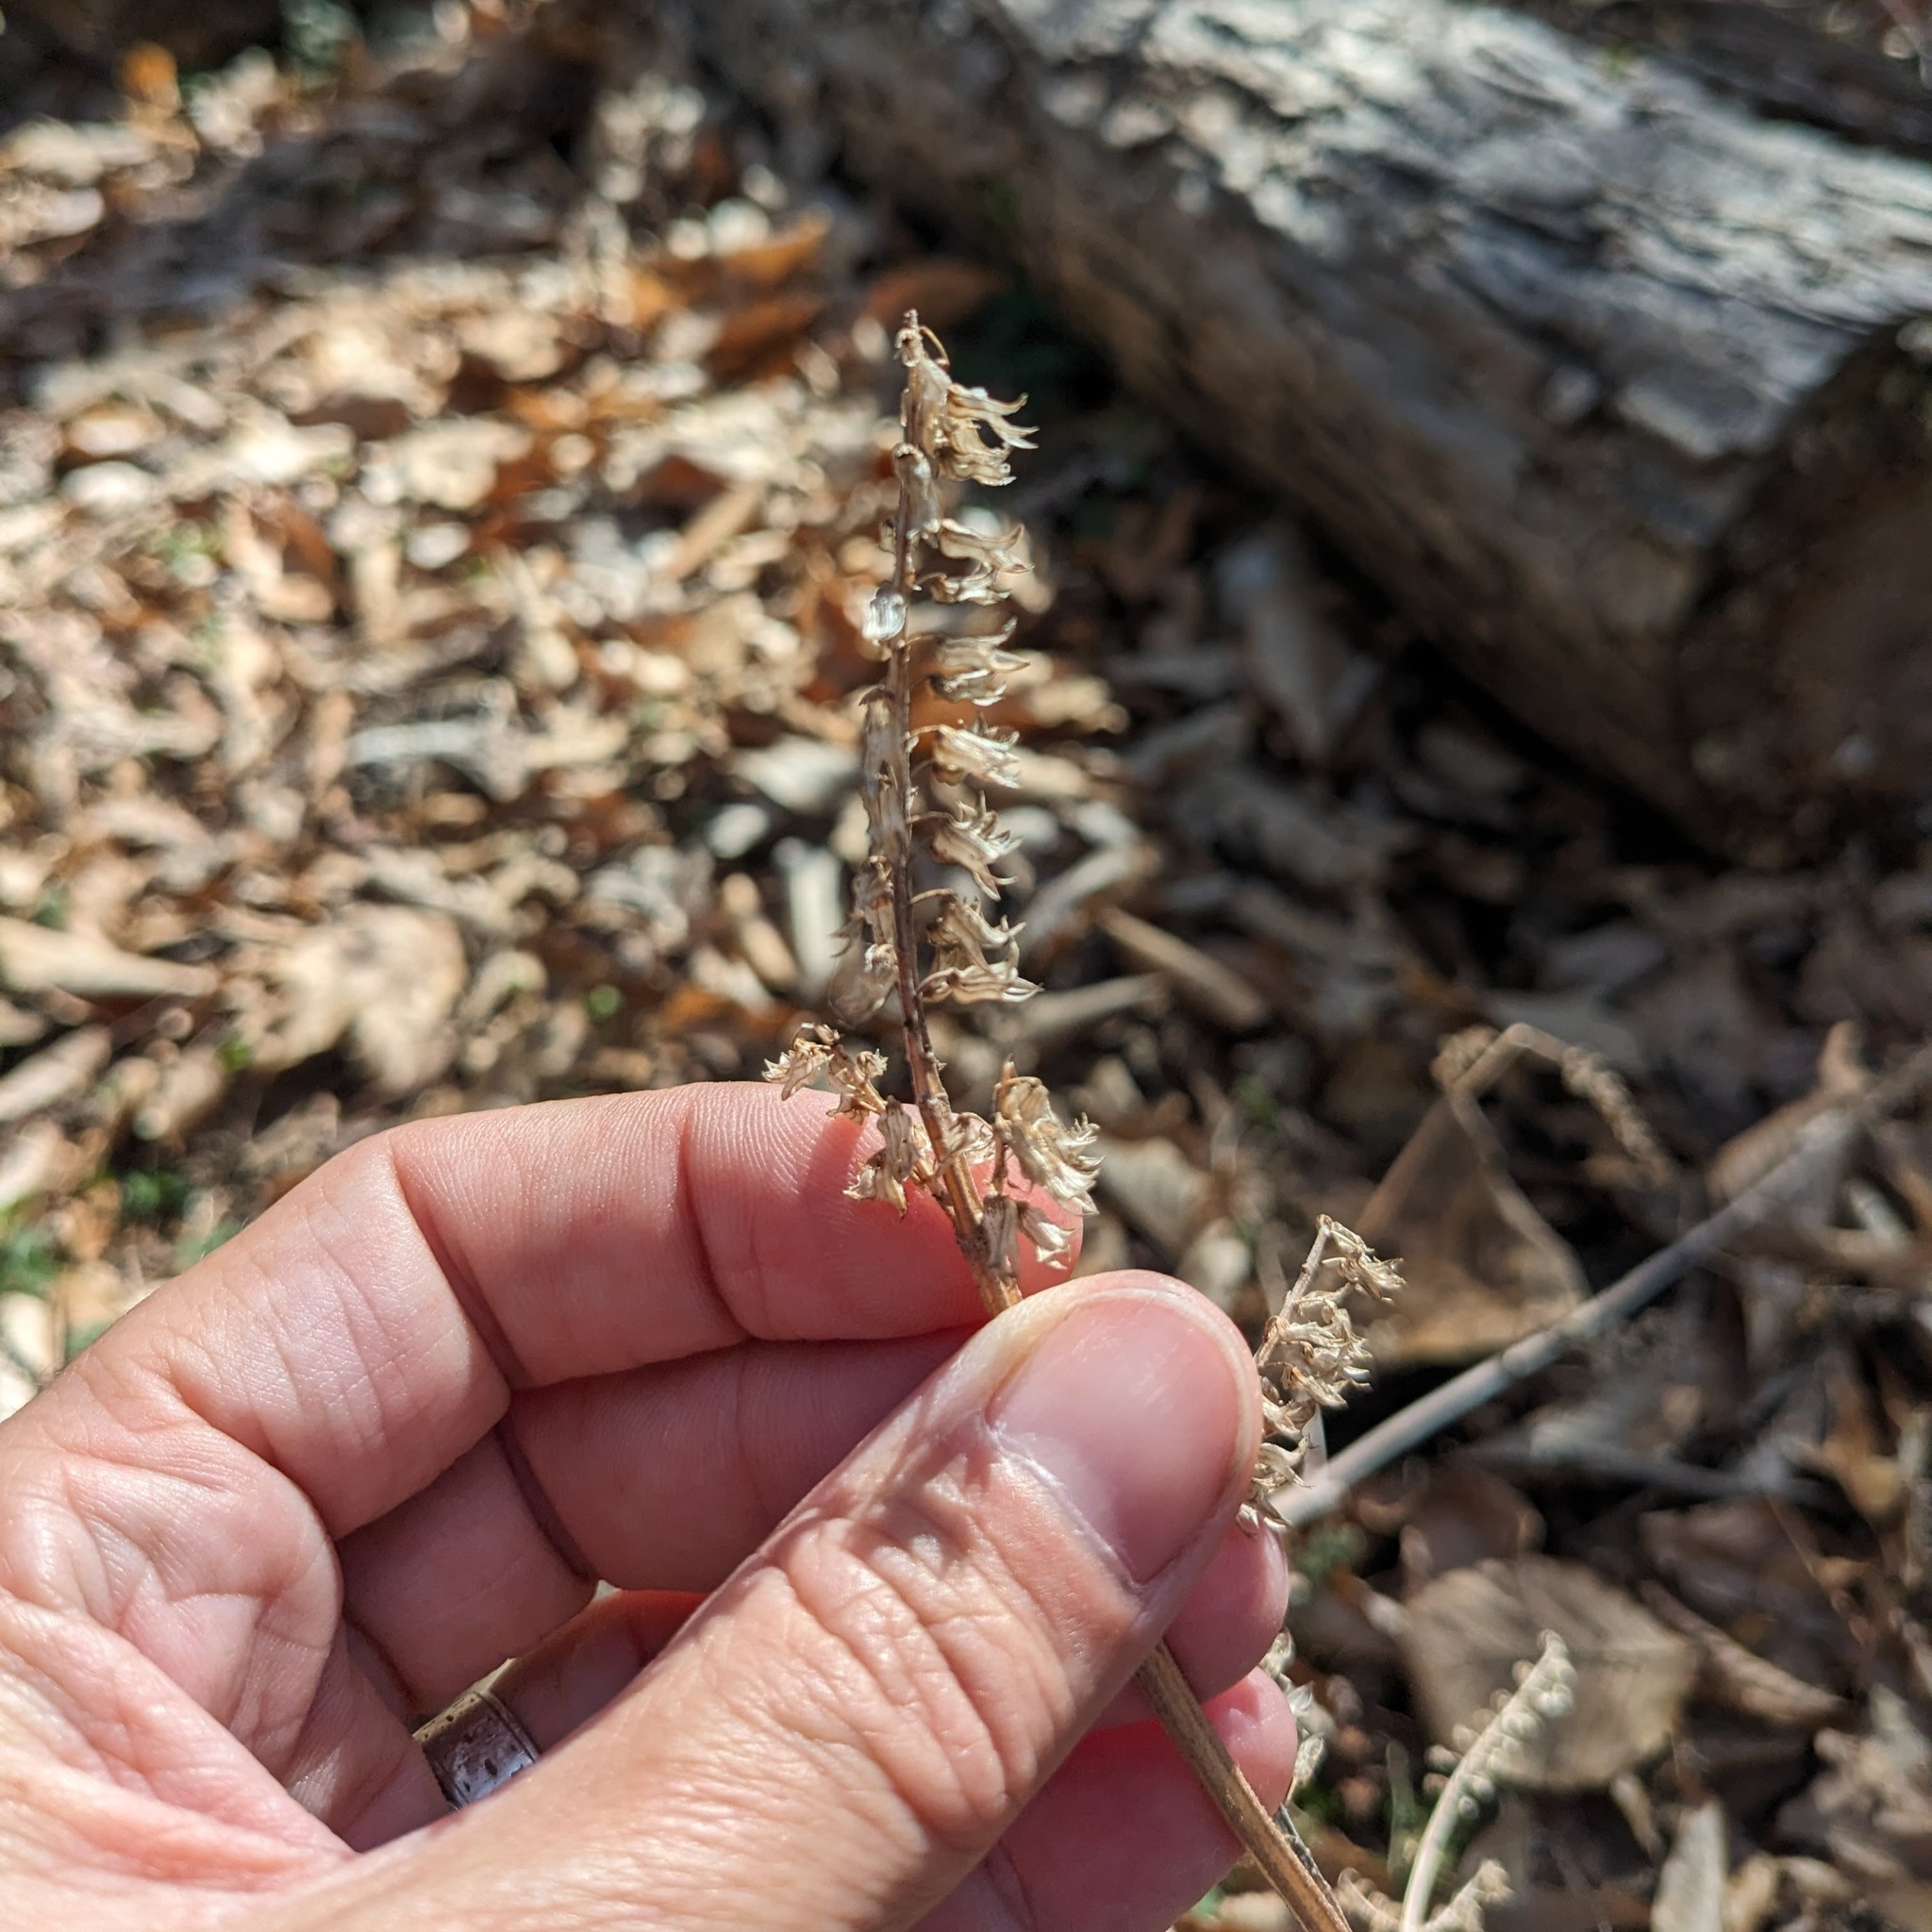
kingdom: Plantae
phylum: Tracheophyta
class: Magnoliopsida
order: Lamiales
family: Lamiaceae
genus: Perilla
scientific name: Perilla frutescens
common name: Perilla
